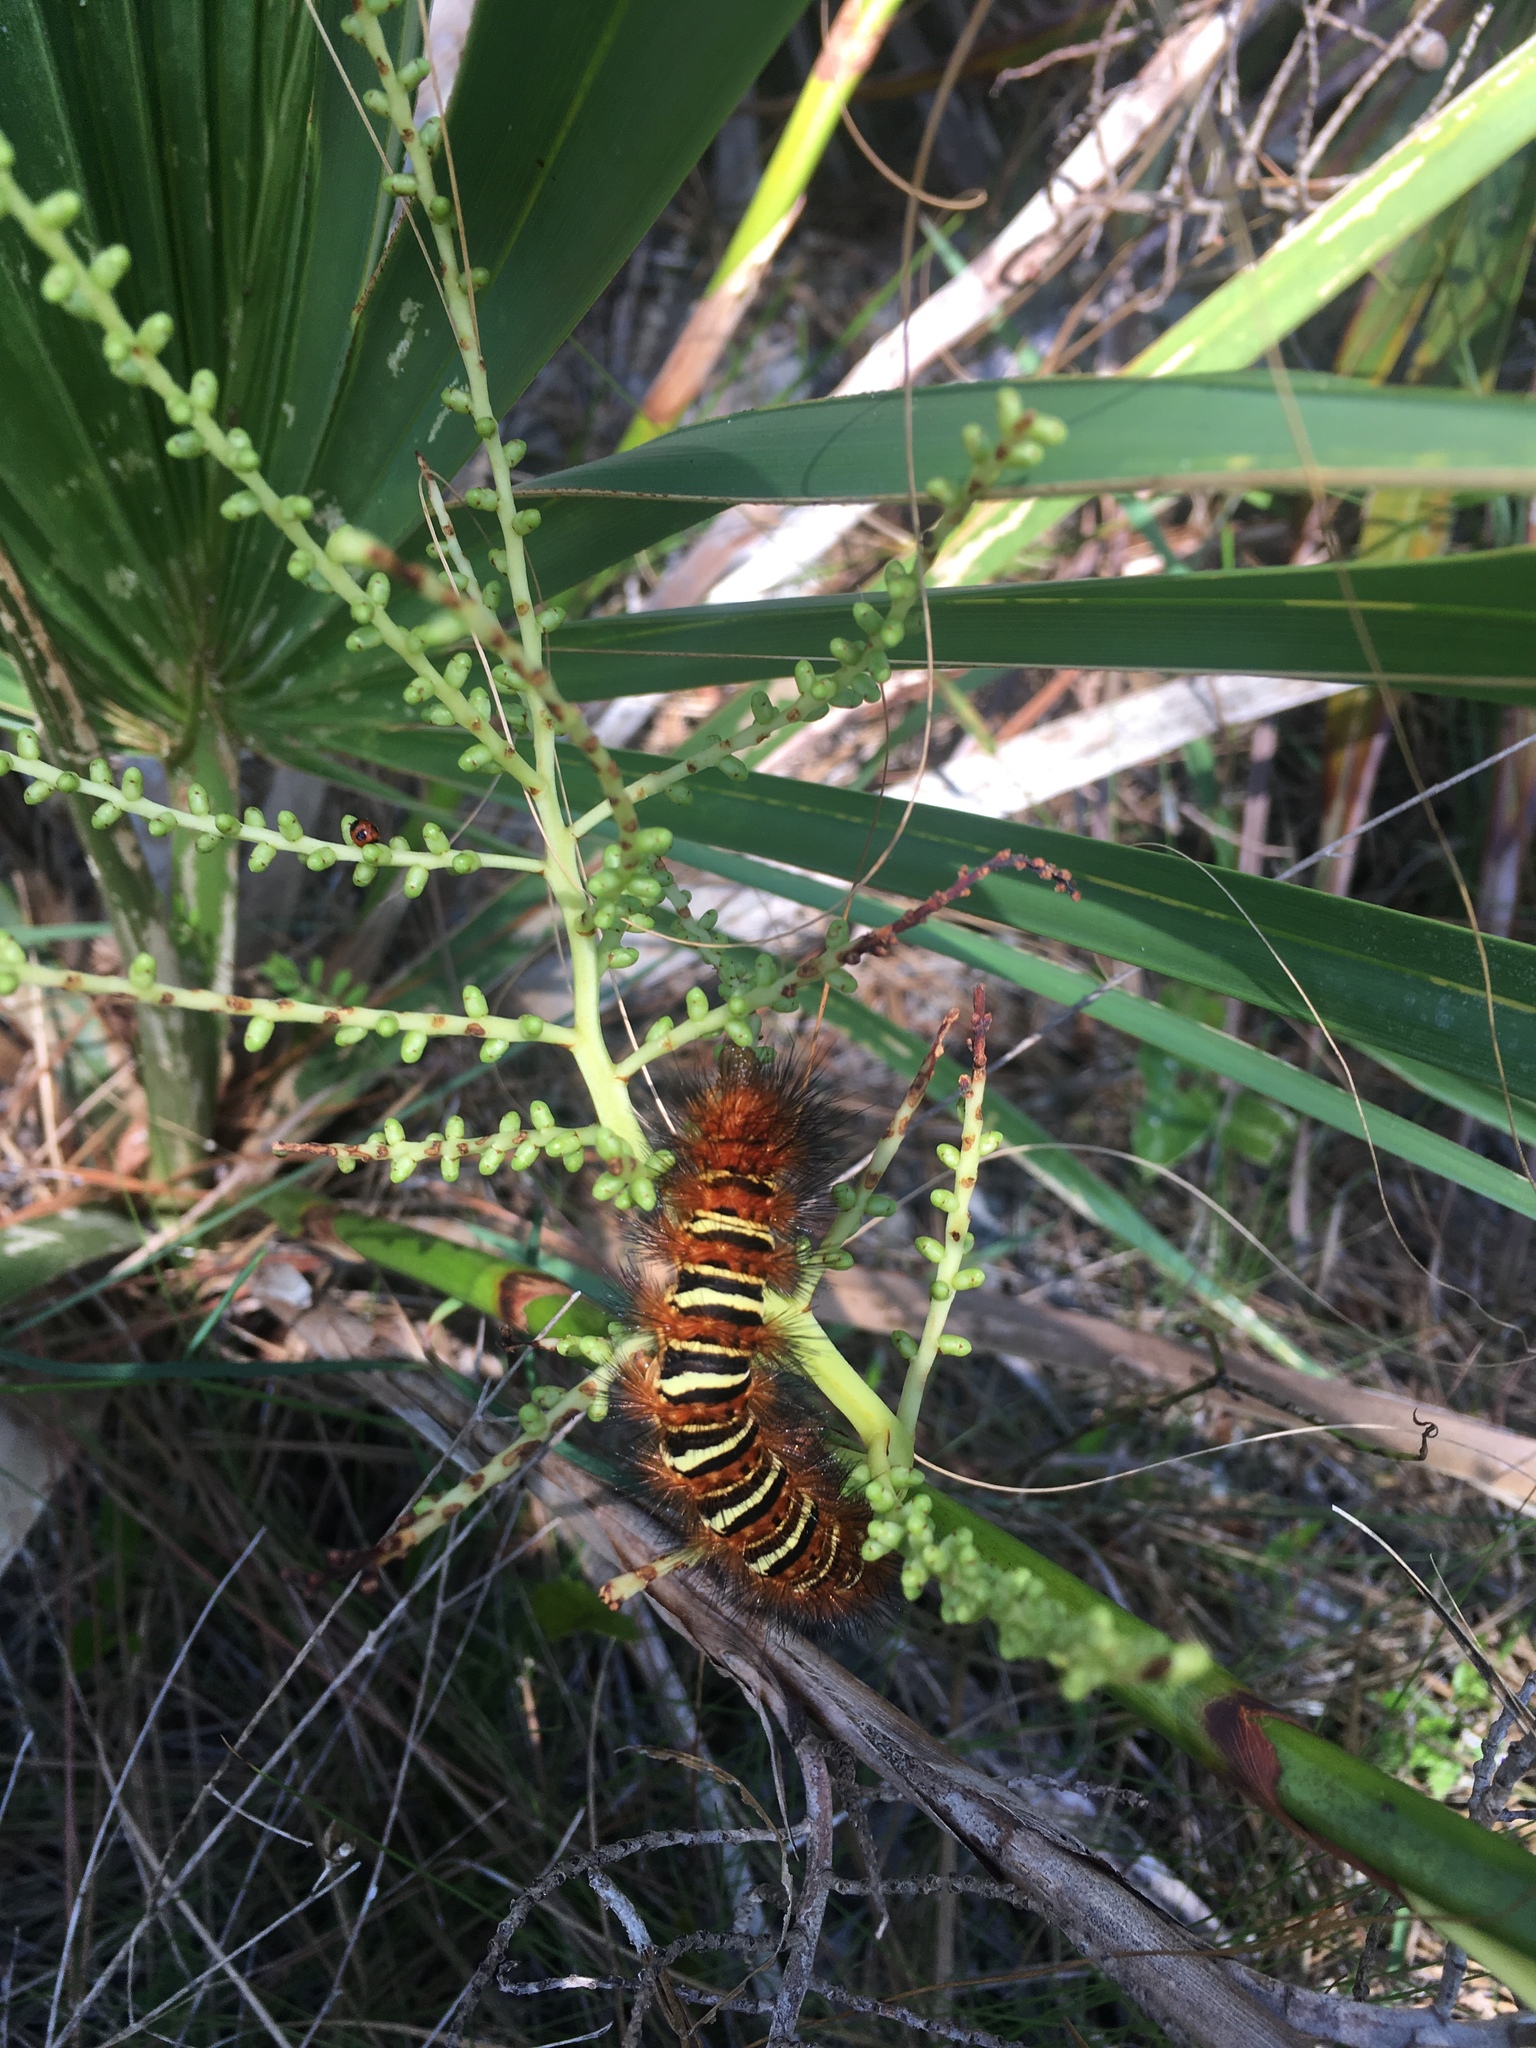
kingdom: Animalia
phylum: Arthropoda
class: Insecta
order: Lepidoptera
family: Erebidae
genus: Seirarctia
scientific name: Seirarctia echo
